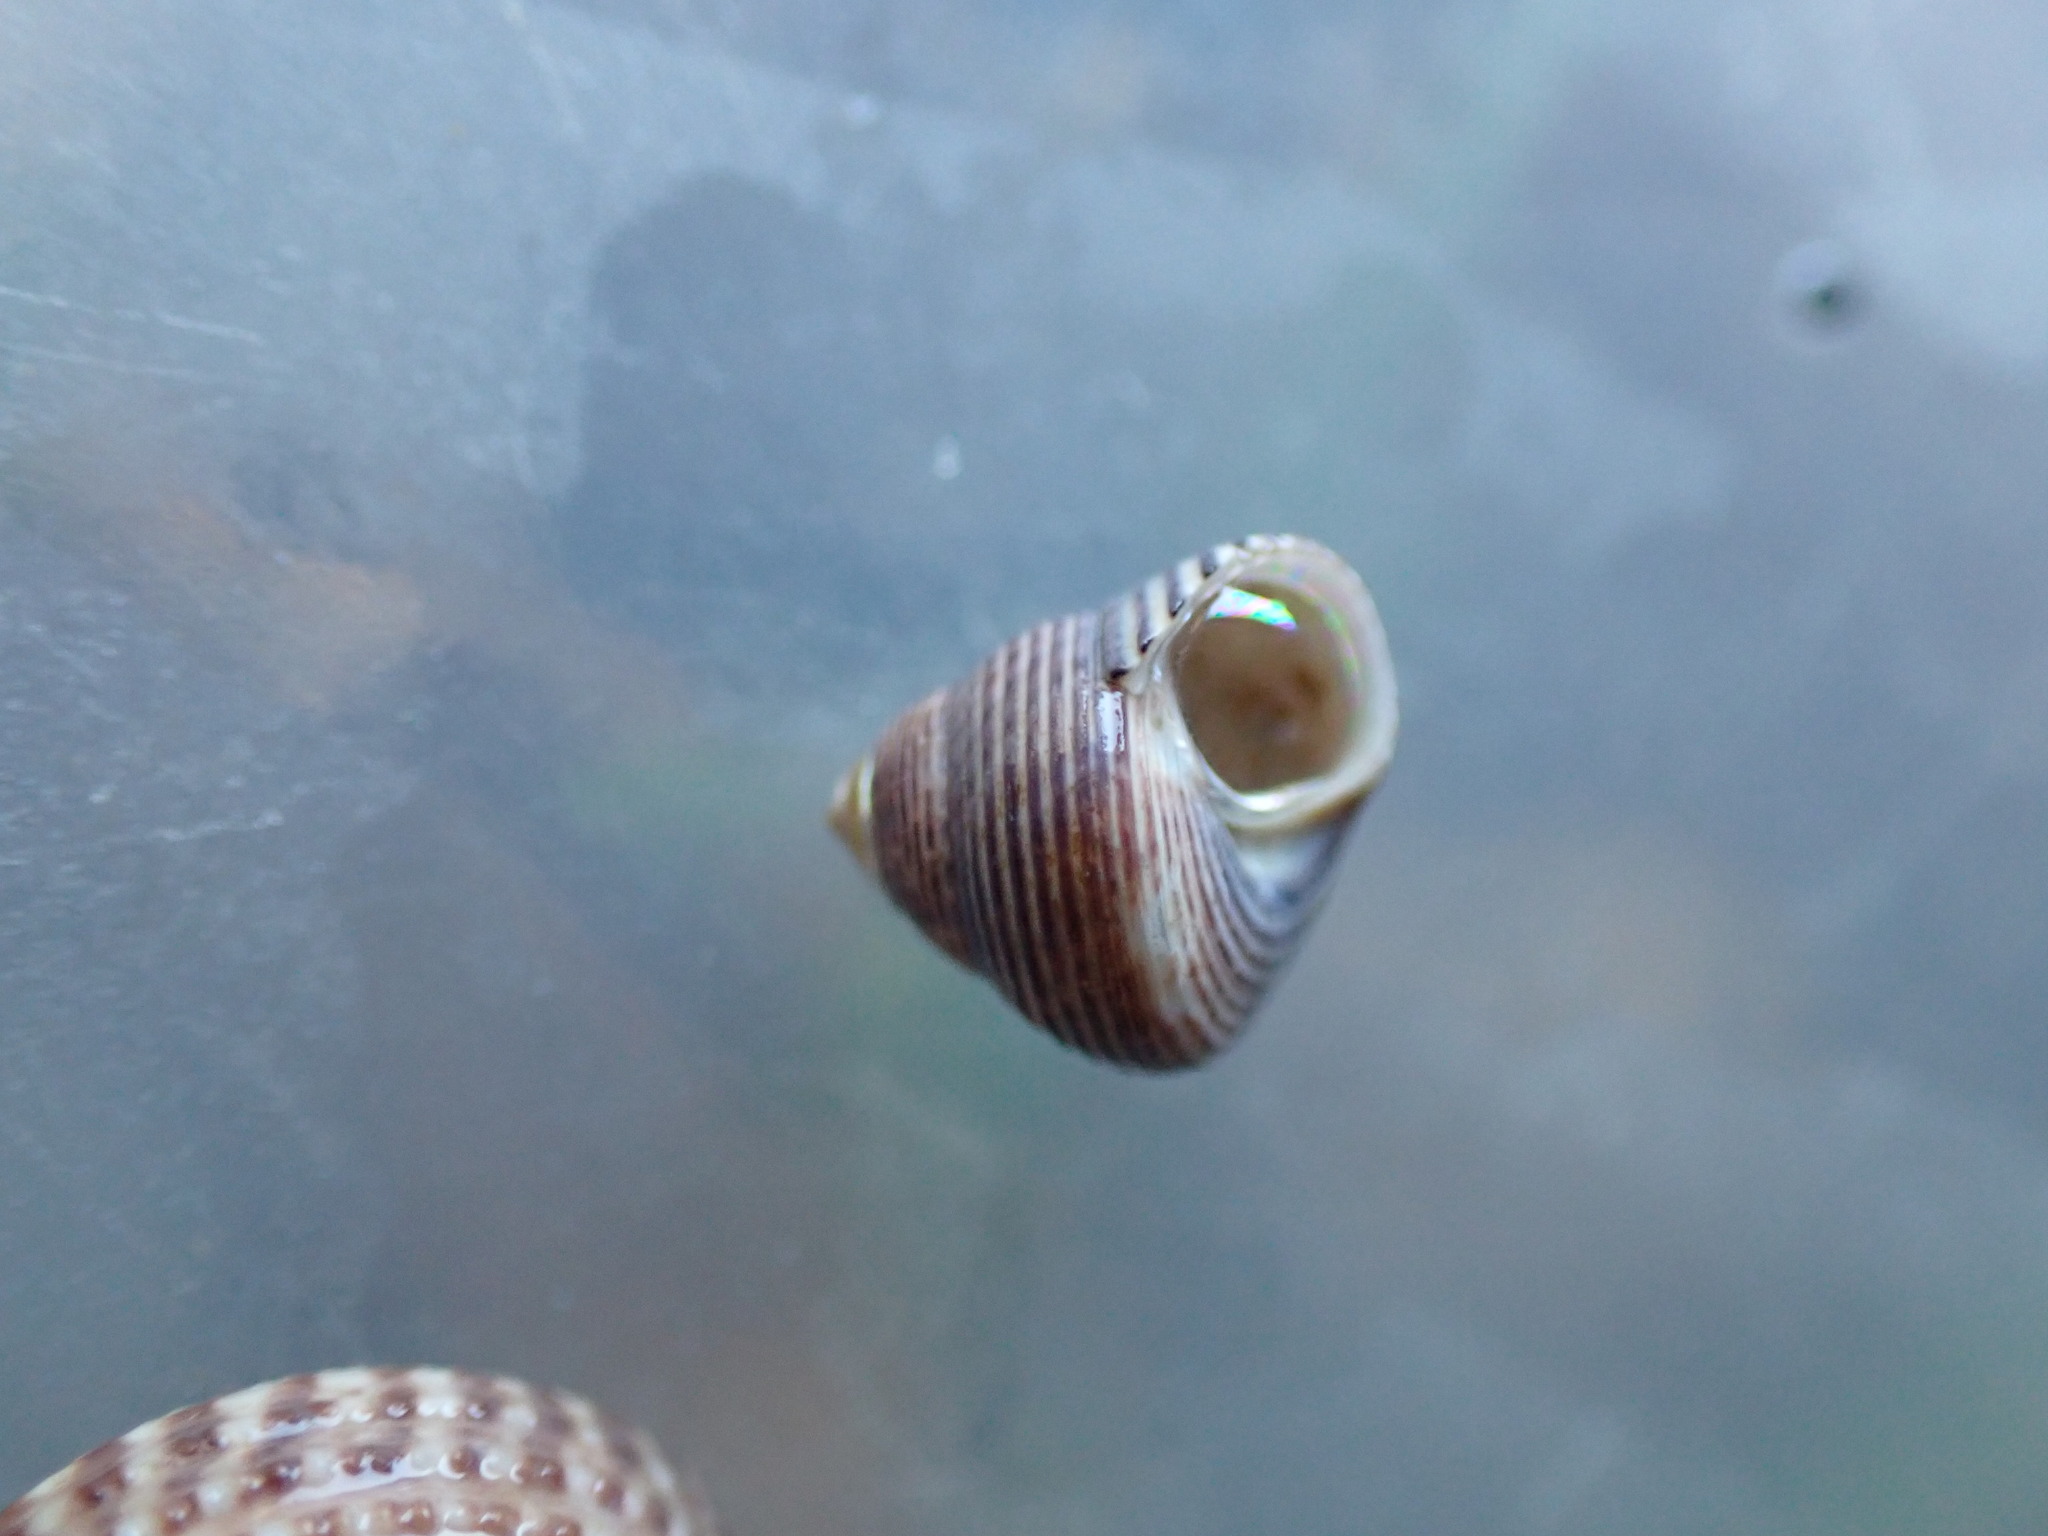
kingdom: Animalia
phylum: Mollusca
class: Gastropoda
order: Trochida
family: Trochidae
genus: Micrelenchus
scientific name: Micrelenchus huttonii
